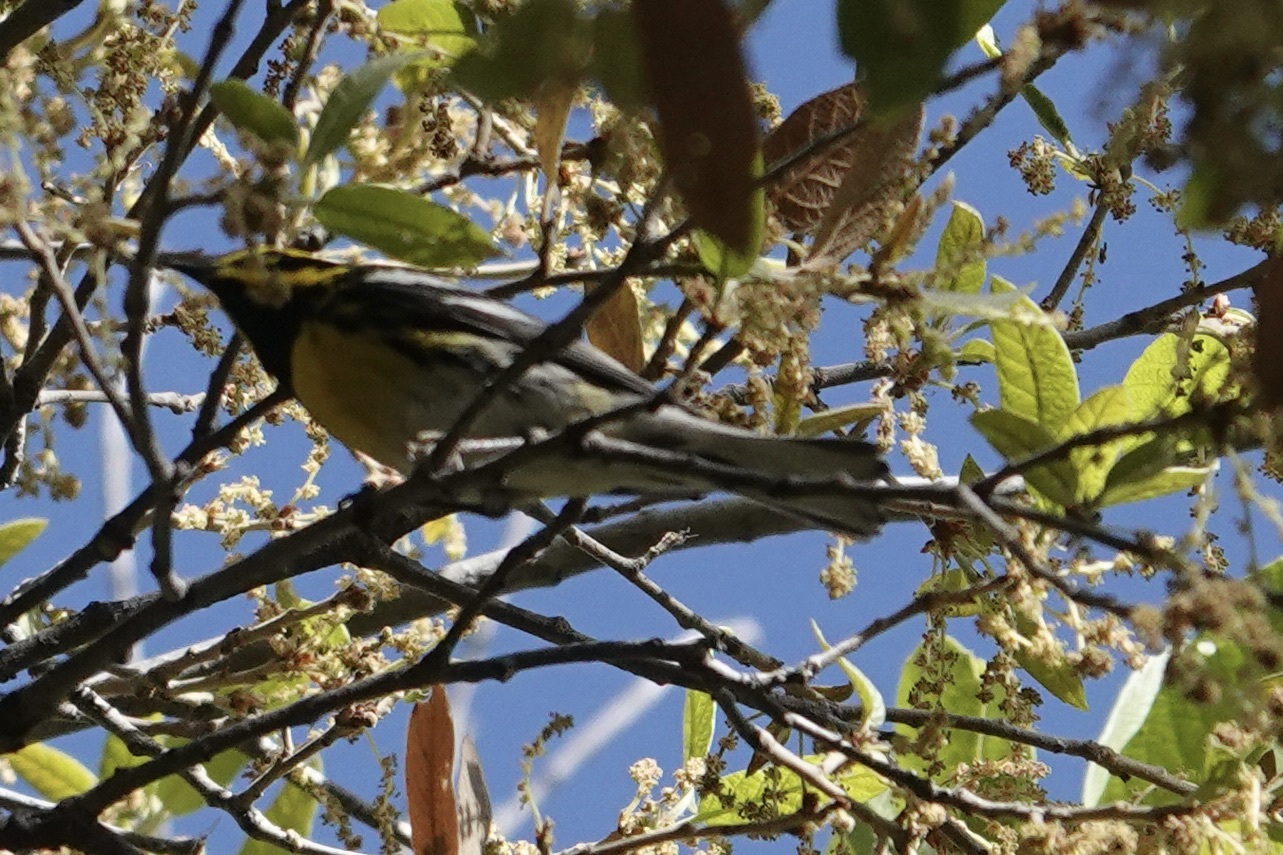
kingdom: Animalia
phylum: Chordata
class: Aves
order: Passeriformes
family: Parulidae
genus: Setophaga
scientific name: Setophaga townsendi
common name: Townsend's warbler
